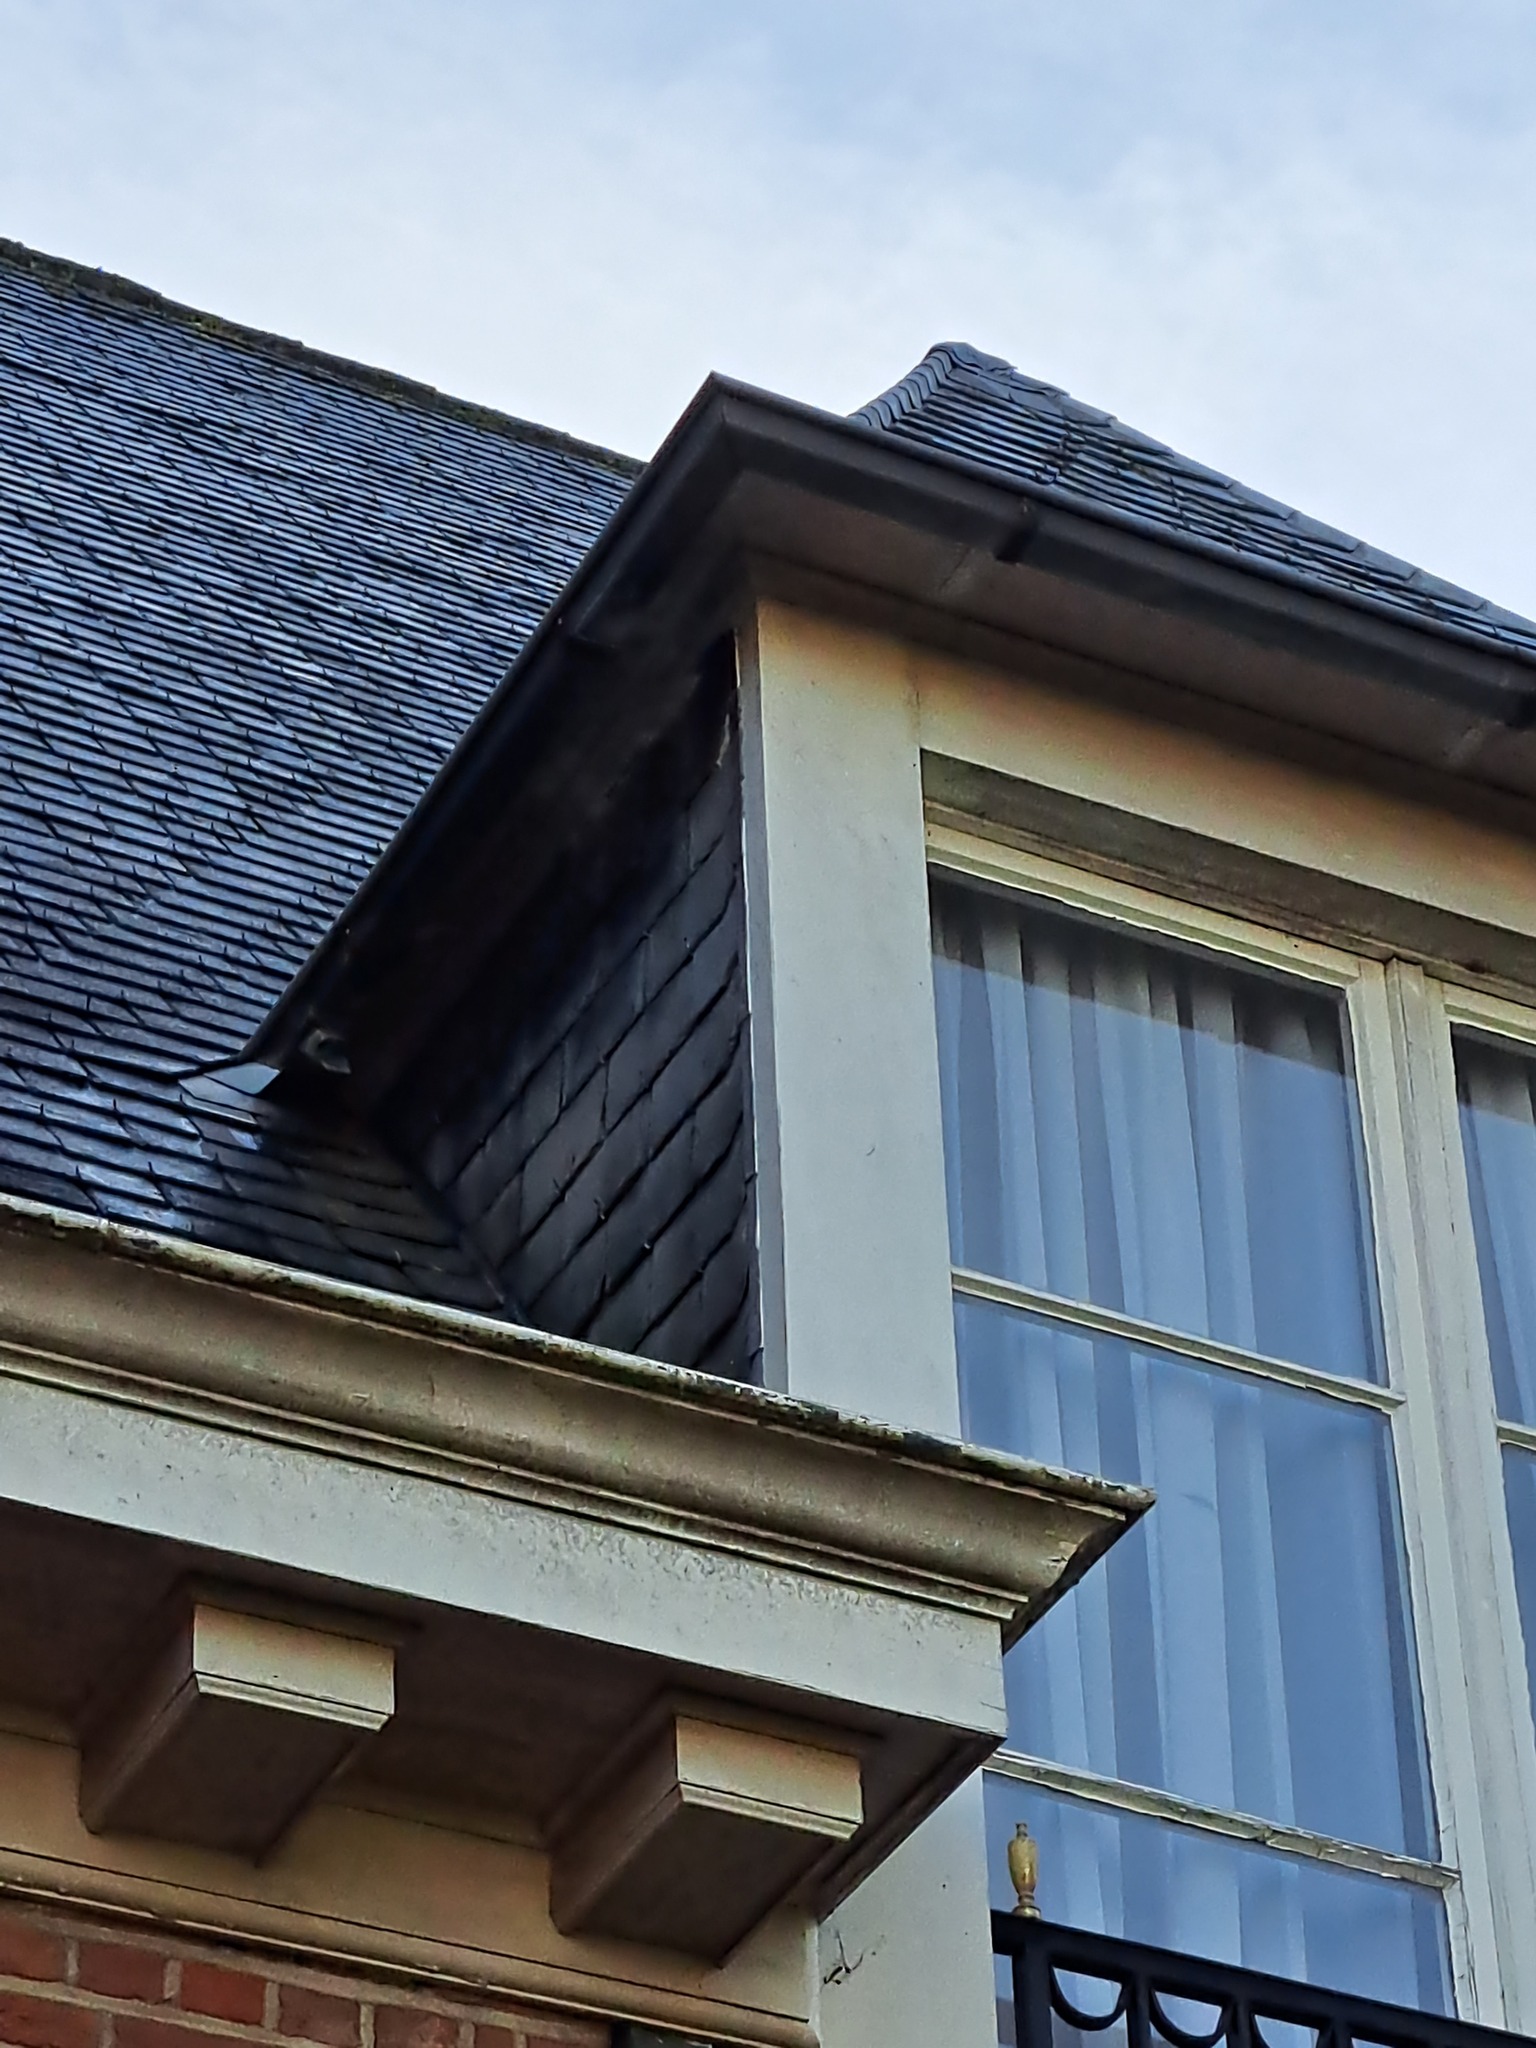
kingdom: Animalia
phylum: Arthropoda
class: Insecta
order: Hymenoptera
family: Vespidae
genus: Vespa
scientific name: Vespa velutina
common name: Asian hornet
